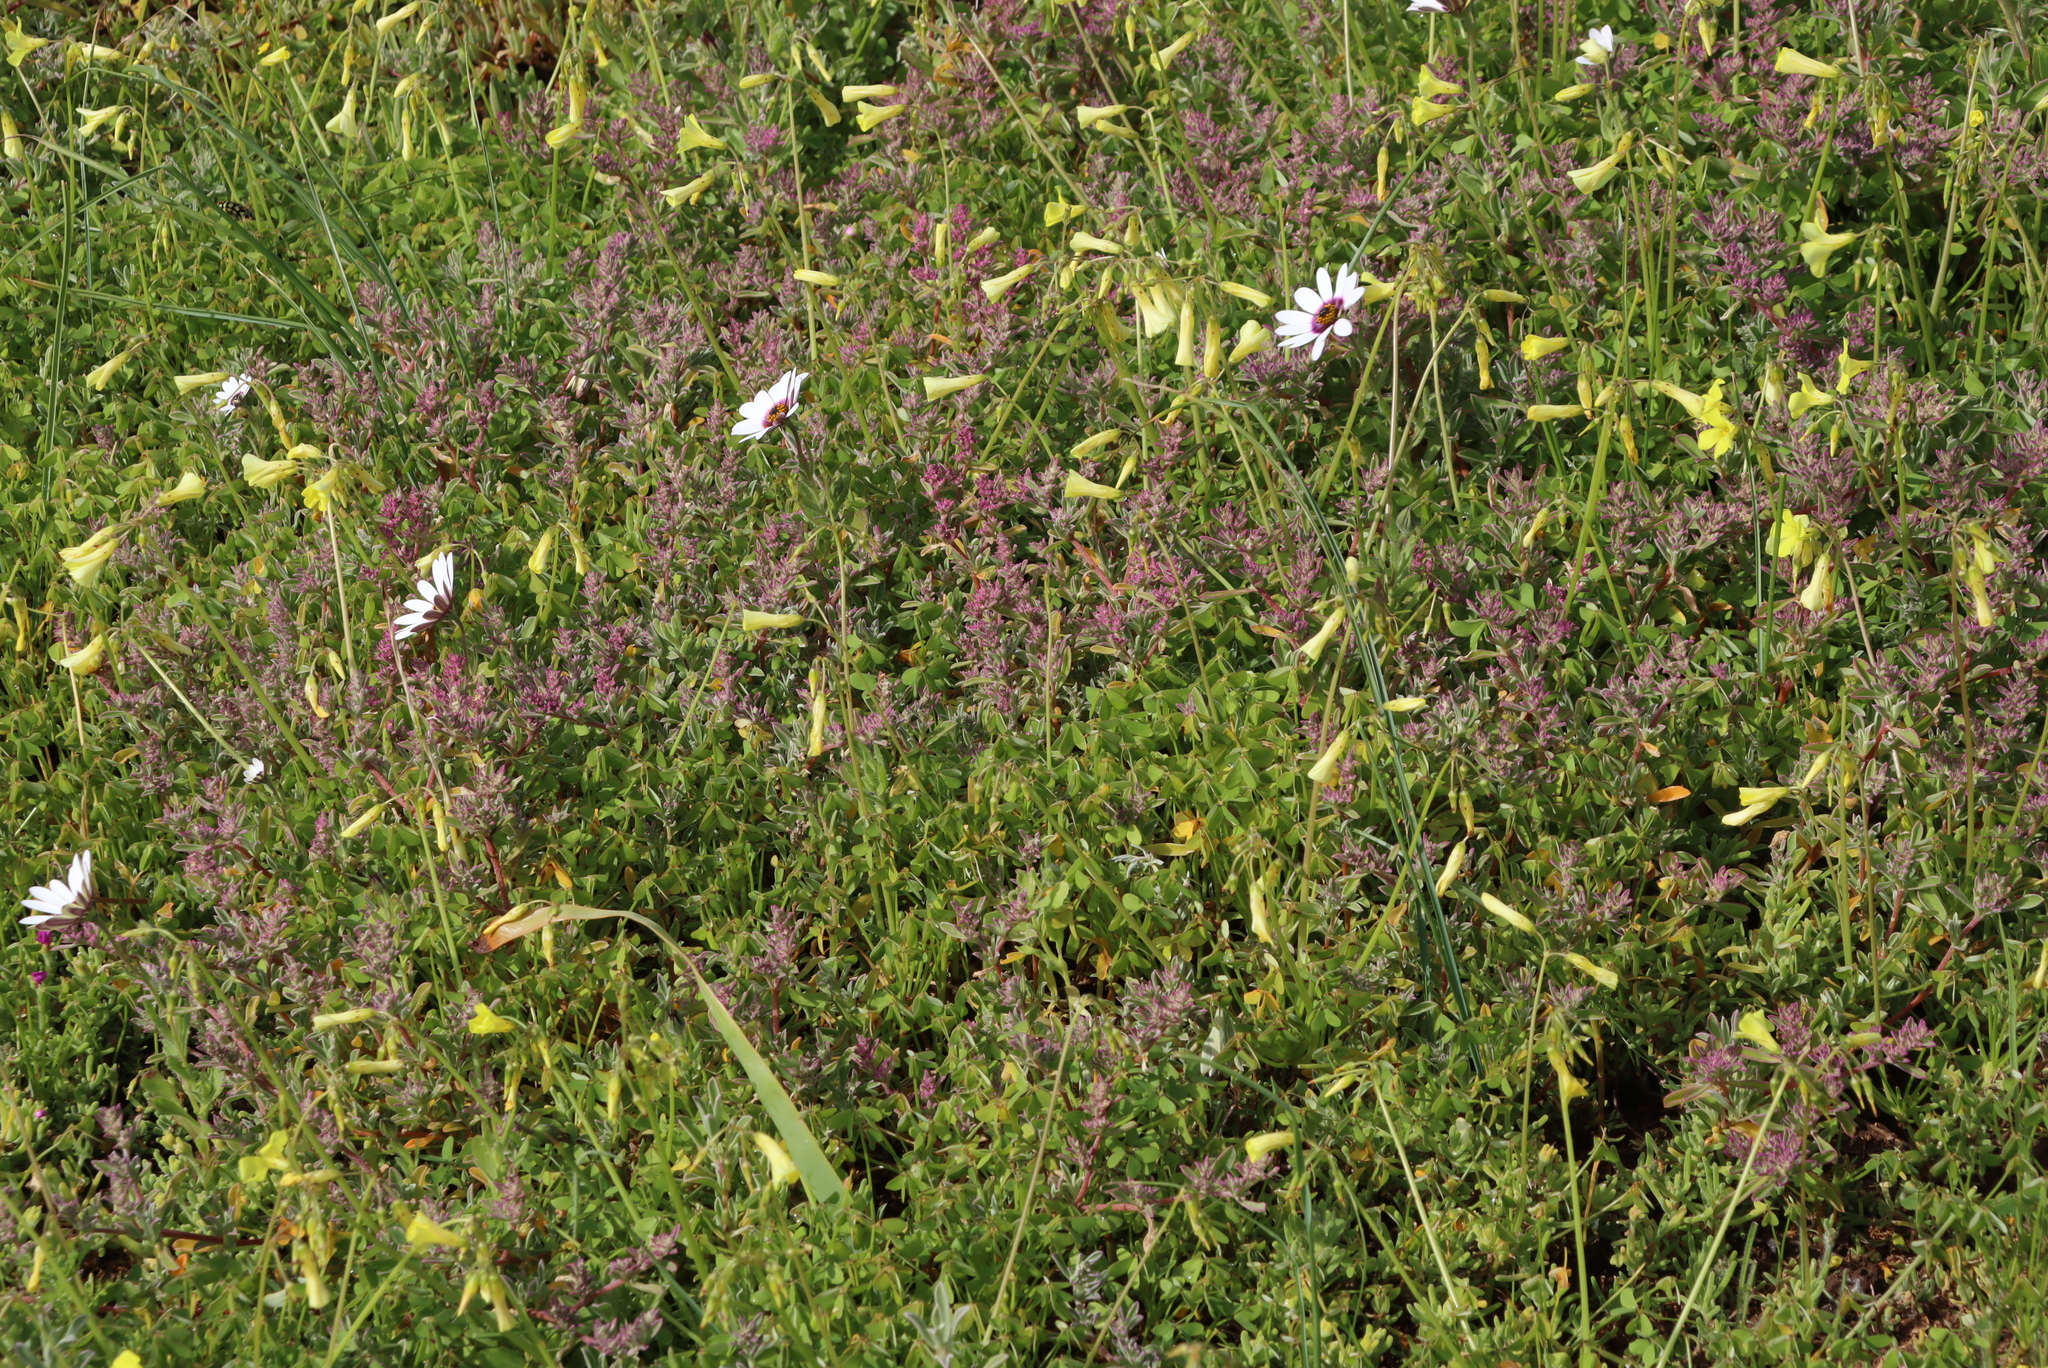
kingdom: Plantae
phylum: Tracheophyta
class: Magnoliopsida
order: Oxalidales
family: Oxalidaceae
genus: Oxalis
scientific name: Oxalis pes-caprae
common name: Bermuda-buttercup
